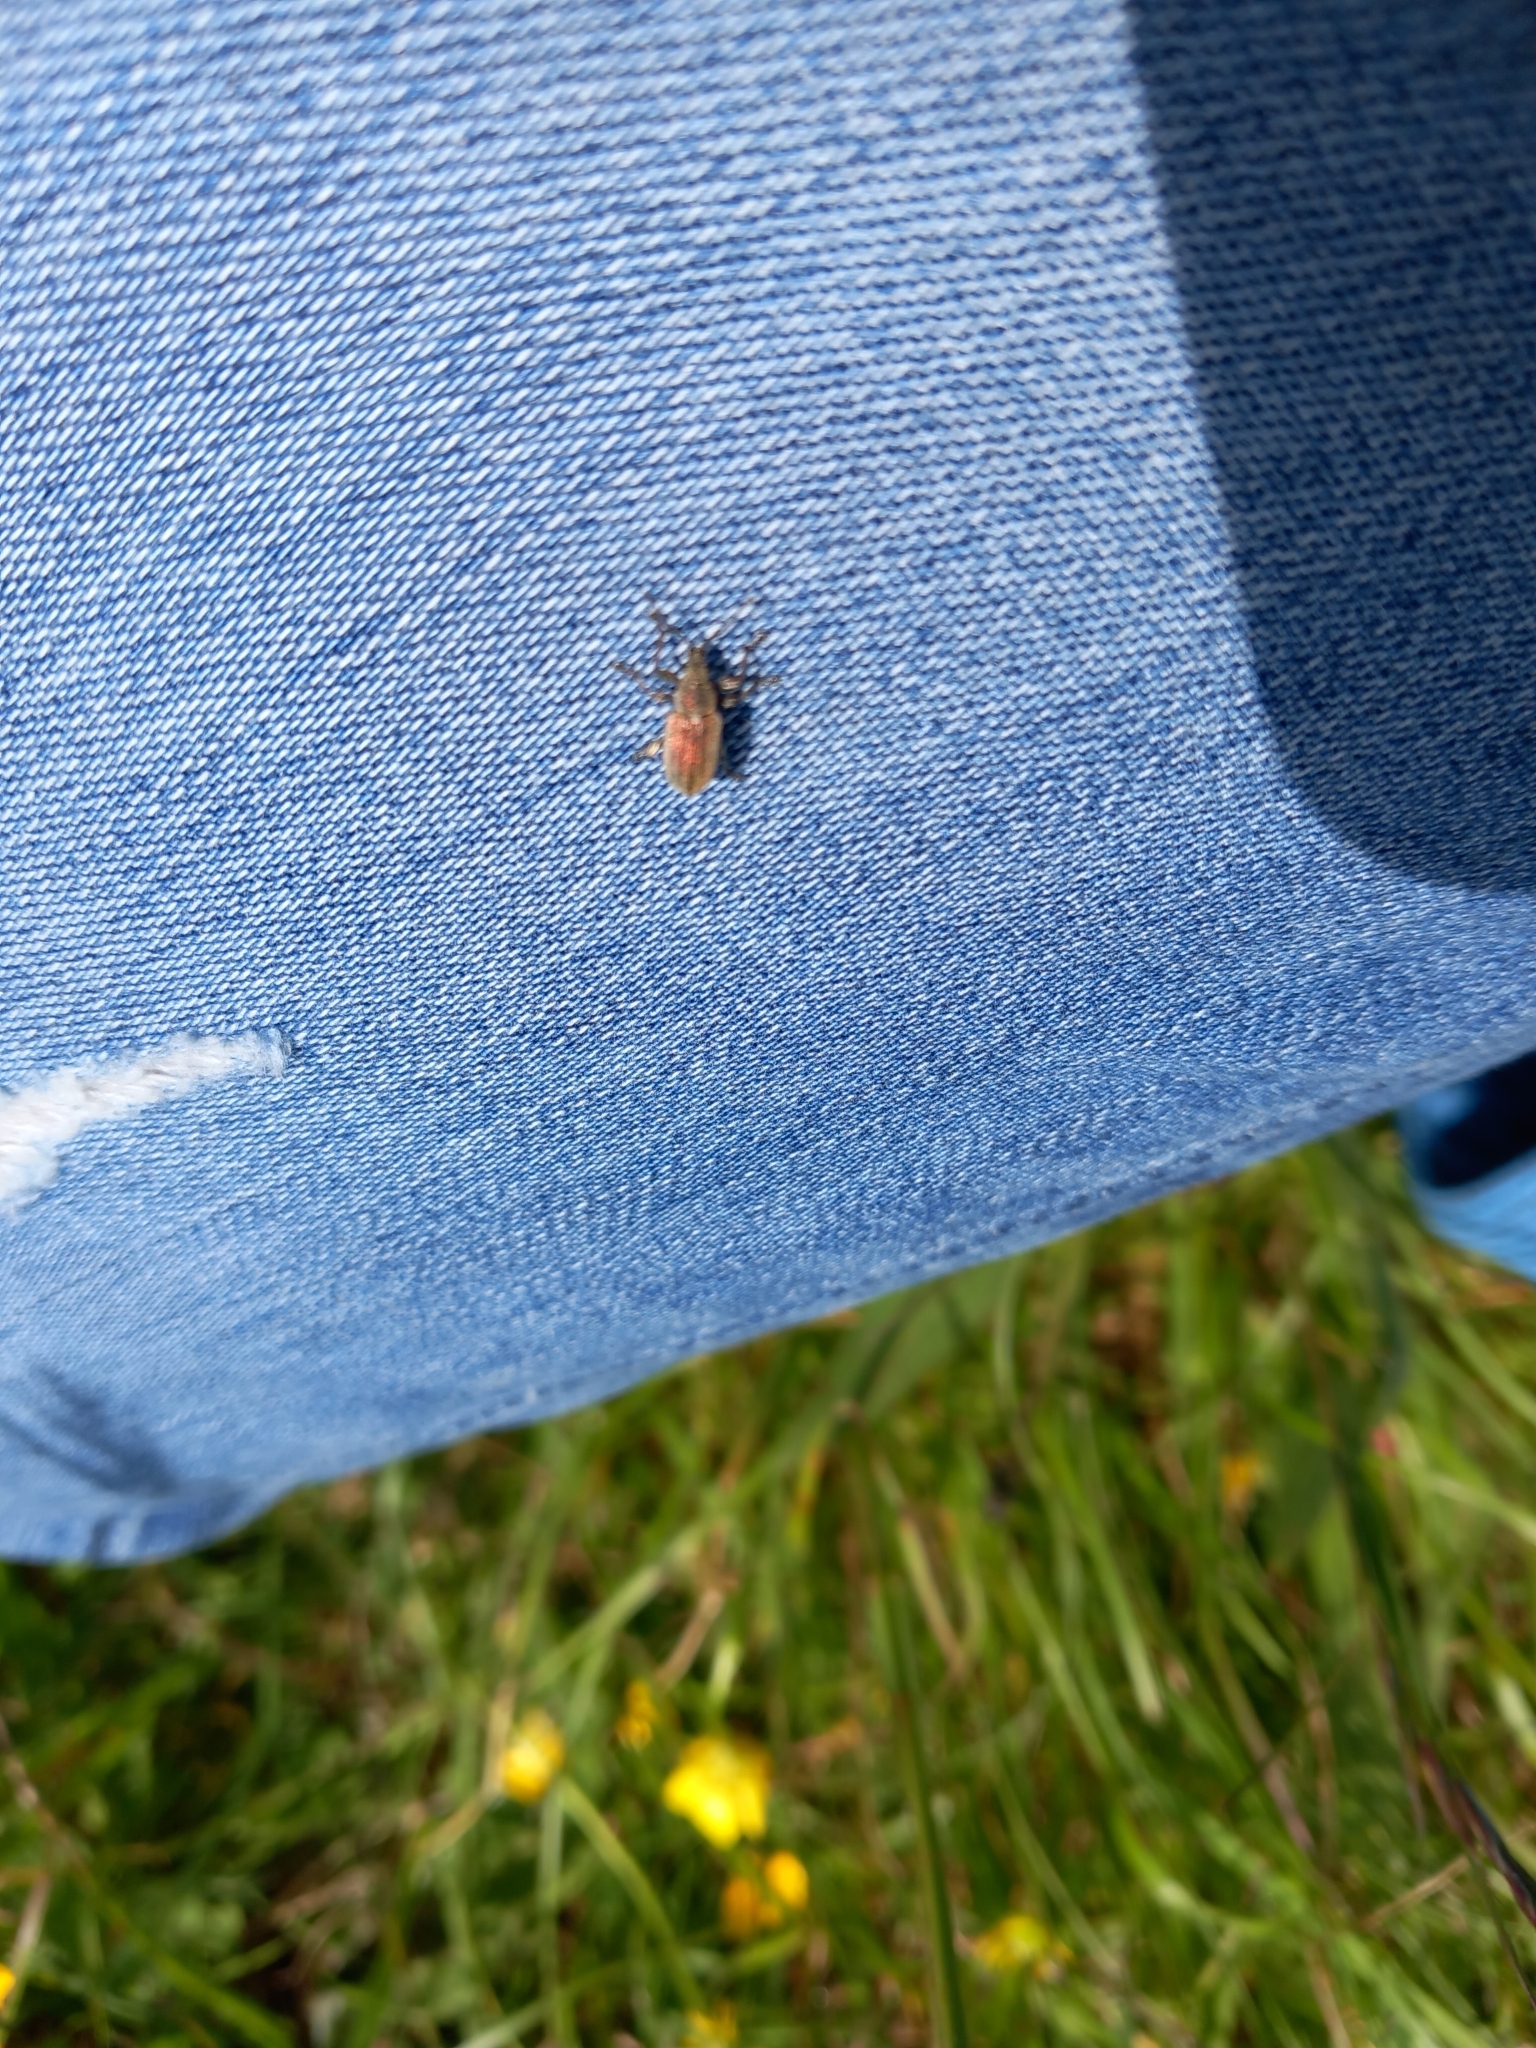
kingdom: Animalia
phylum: Arthropoda
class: Insecta
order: Coleoptera
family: Curculionidae
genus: Phyllobius
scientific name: Phyllobius pyri
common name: Common leaf weevil
